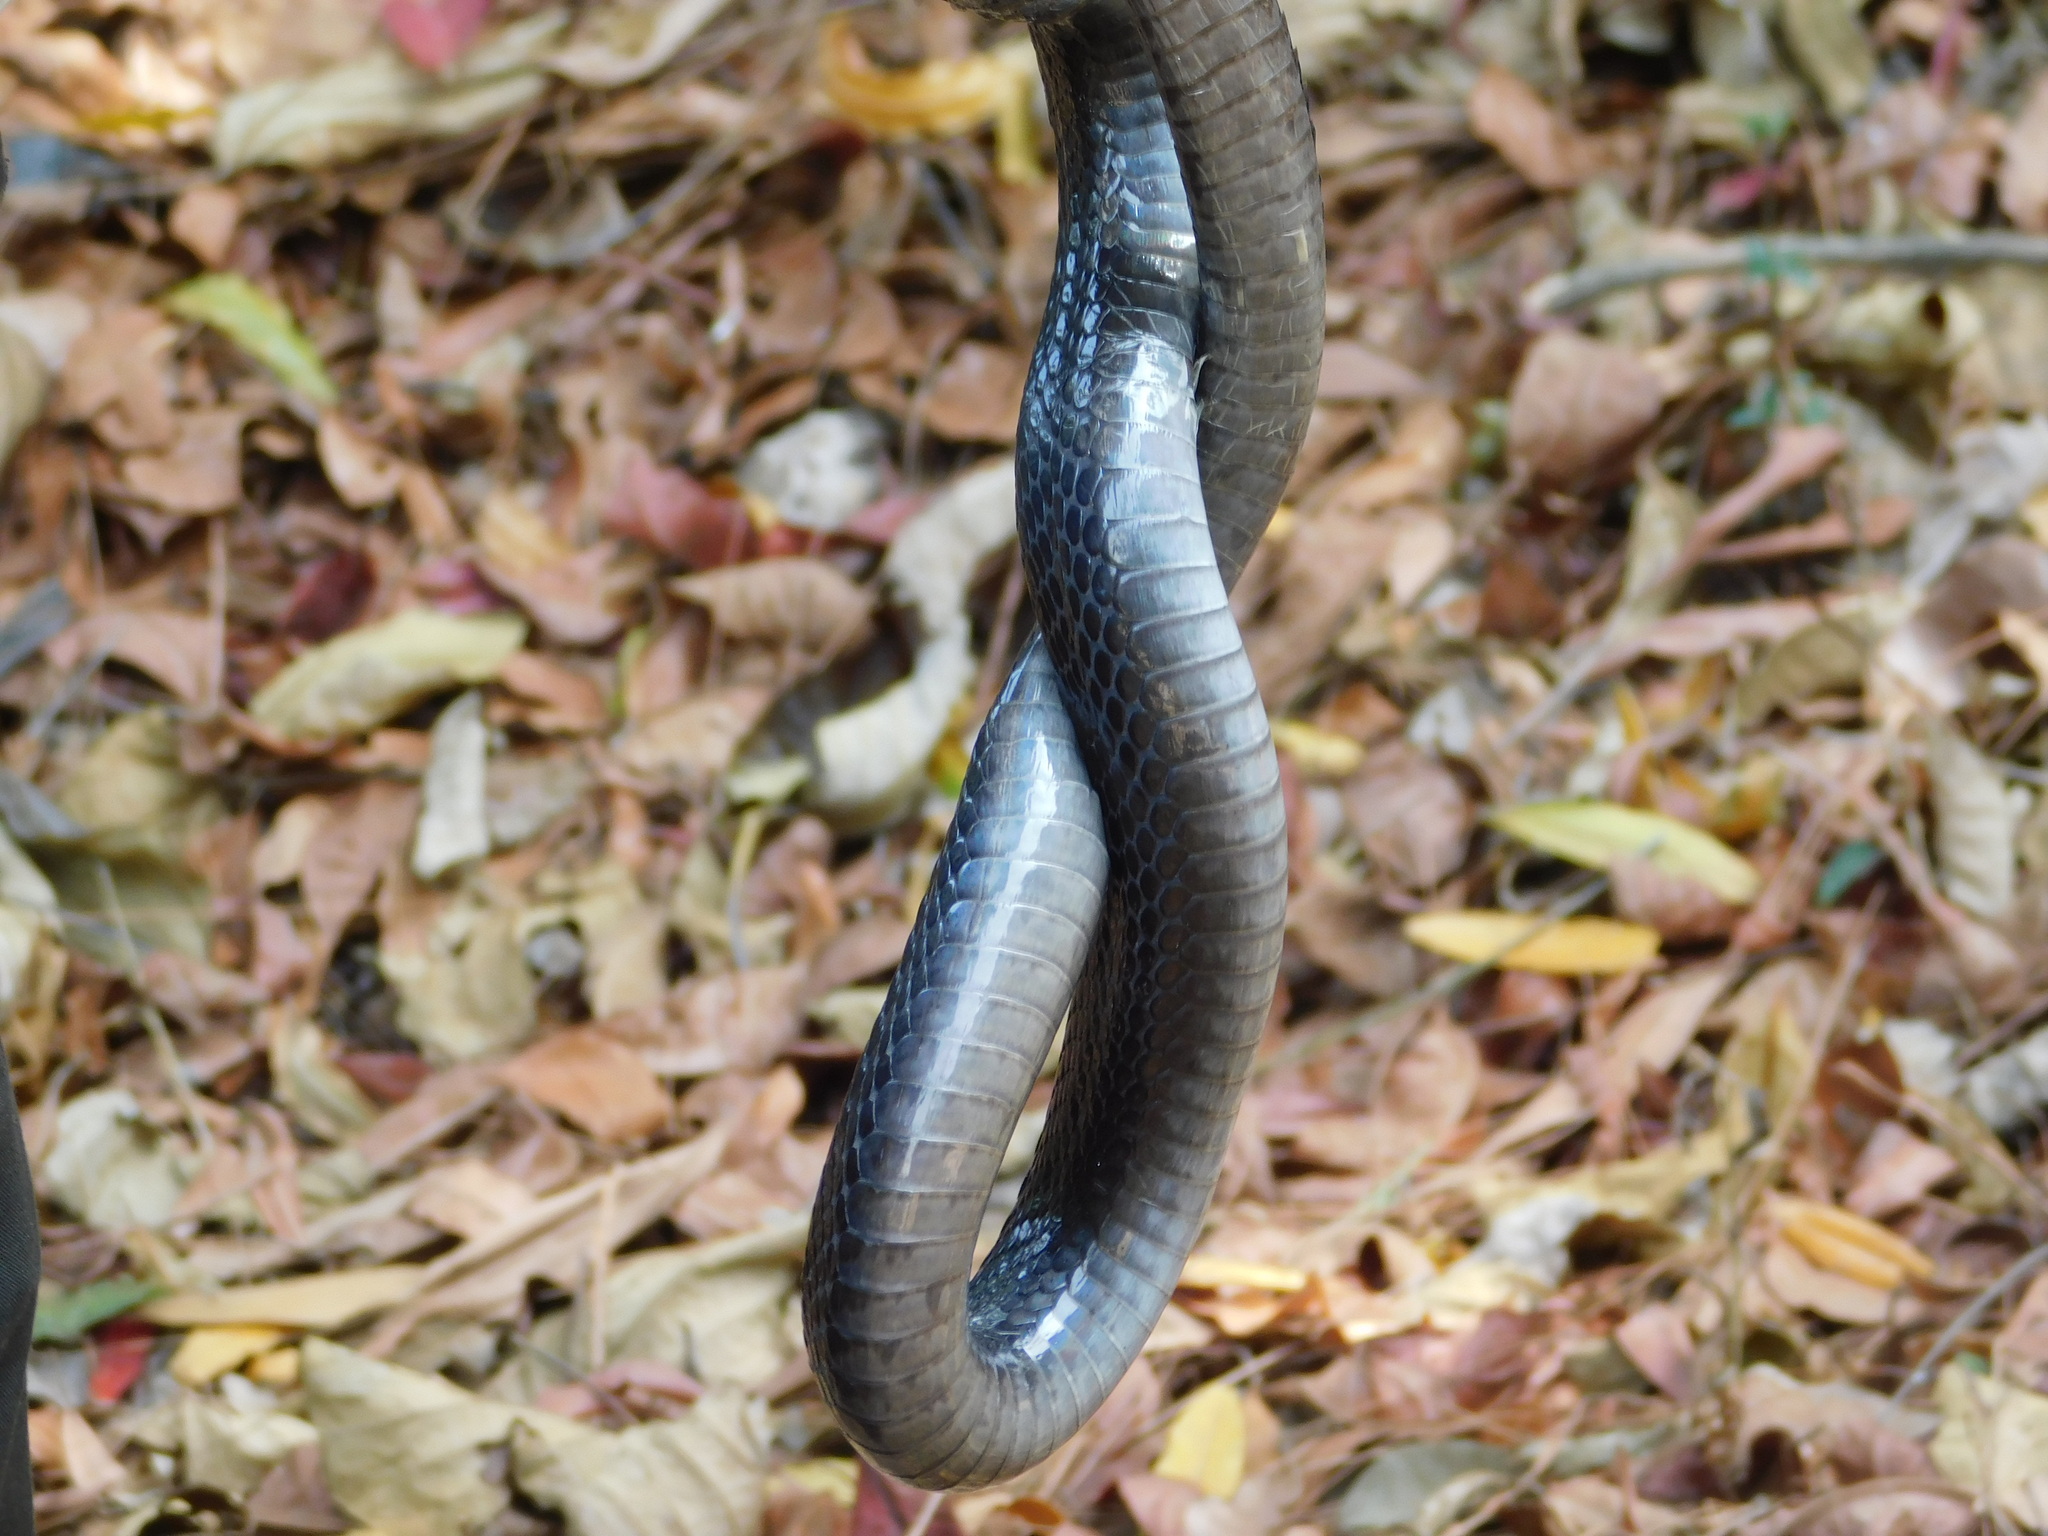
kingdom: Animalia
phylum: Chordata
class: Squamata
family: Elapidae
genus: Naja
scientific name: Naja sputatrix
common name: Javan spitting cobra
